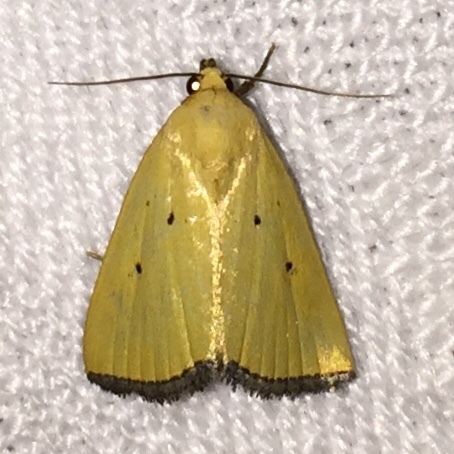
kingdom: Animalia
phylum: Arthropoda
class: Insecta
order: Lepidoptera
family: Noctuidae
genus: Marimatha
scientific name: Marimatha nigrofimbria
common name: Black-bordered lemon moth
